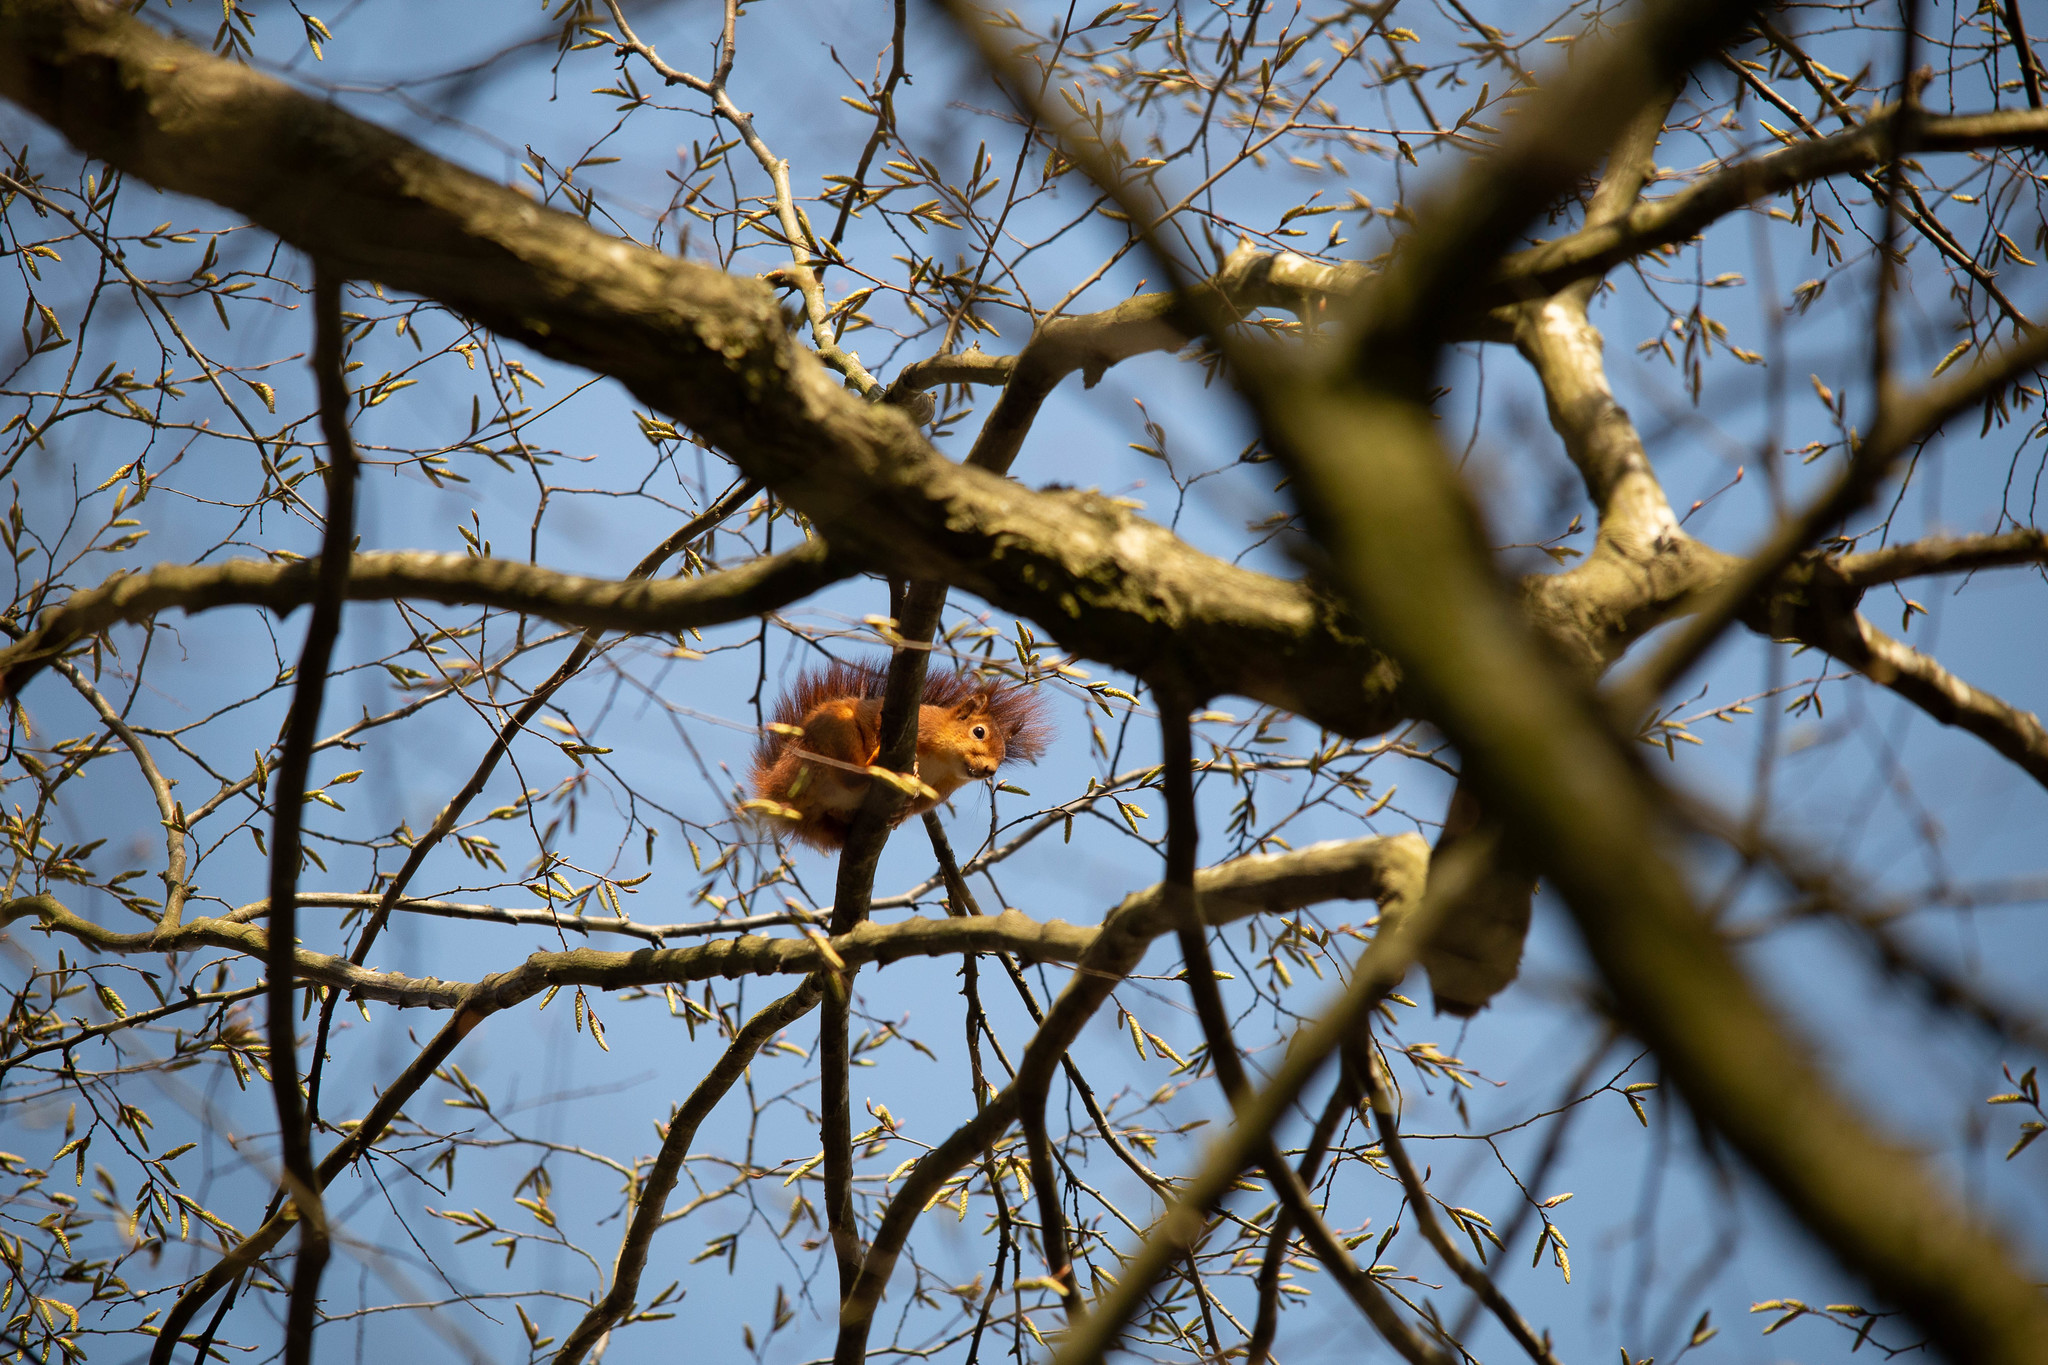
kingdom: Animalia
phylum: Chordata
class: Mammalia
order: Rodentia
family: Sciuridae
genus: Sciurus
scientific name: Sciurus vulgaris
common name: Eurasian red squirrel
